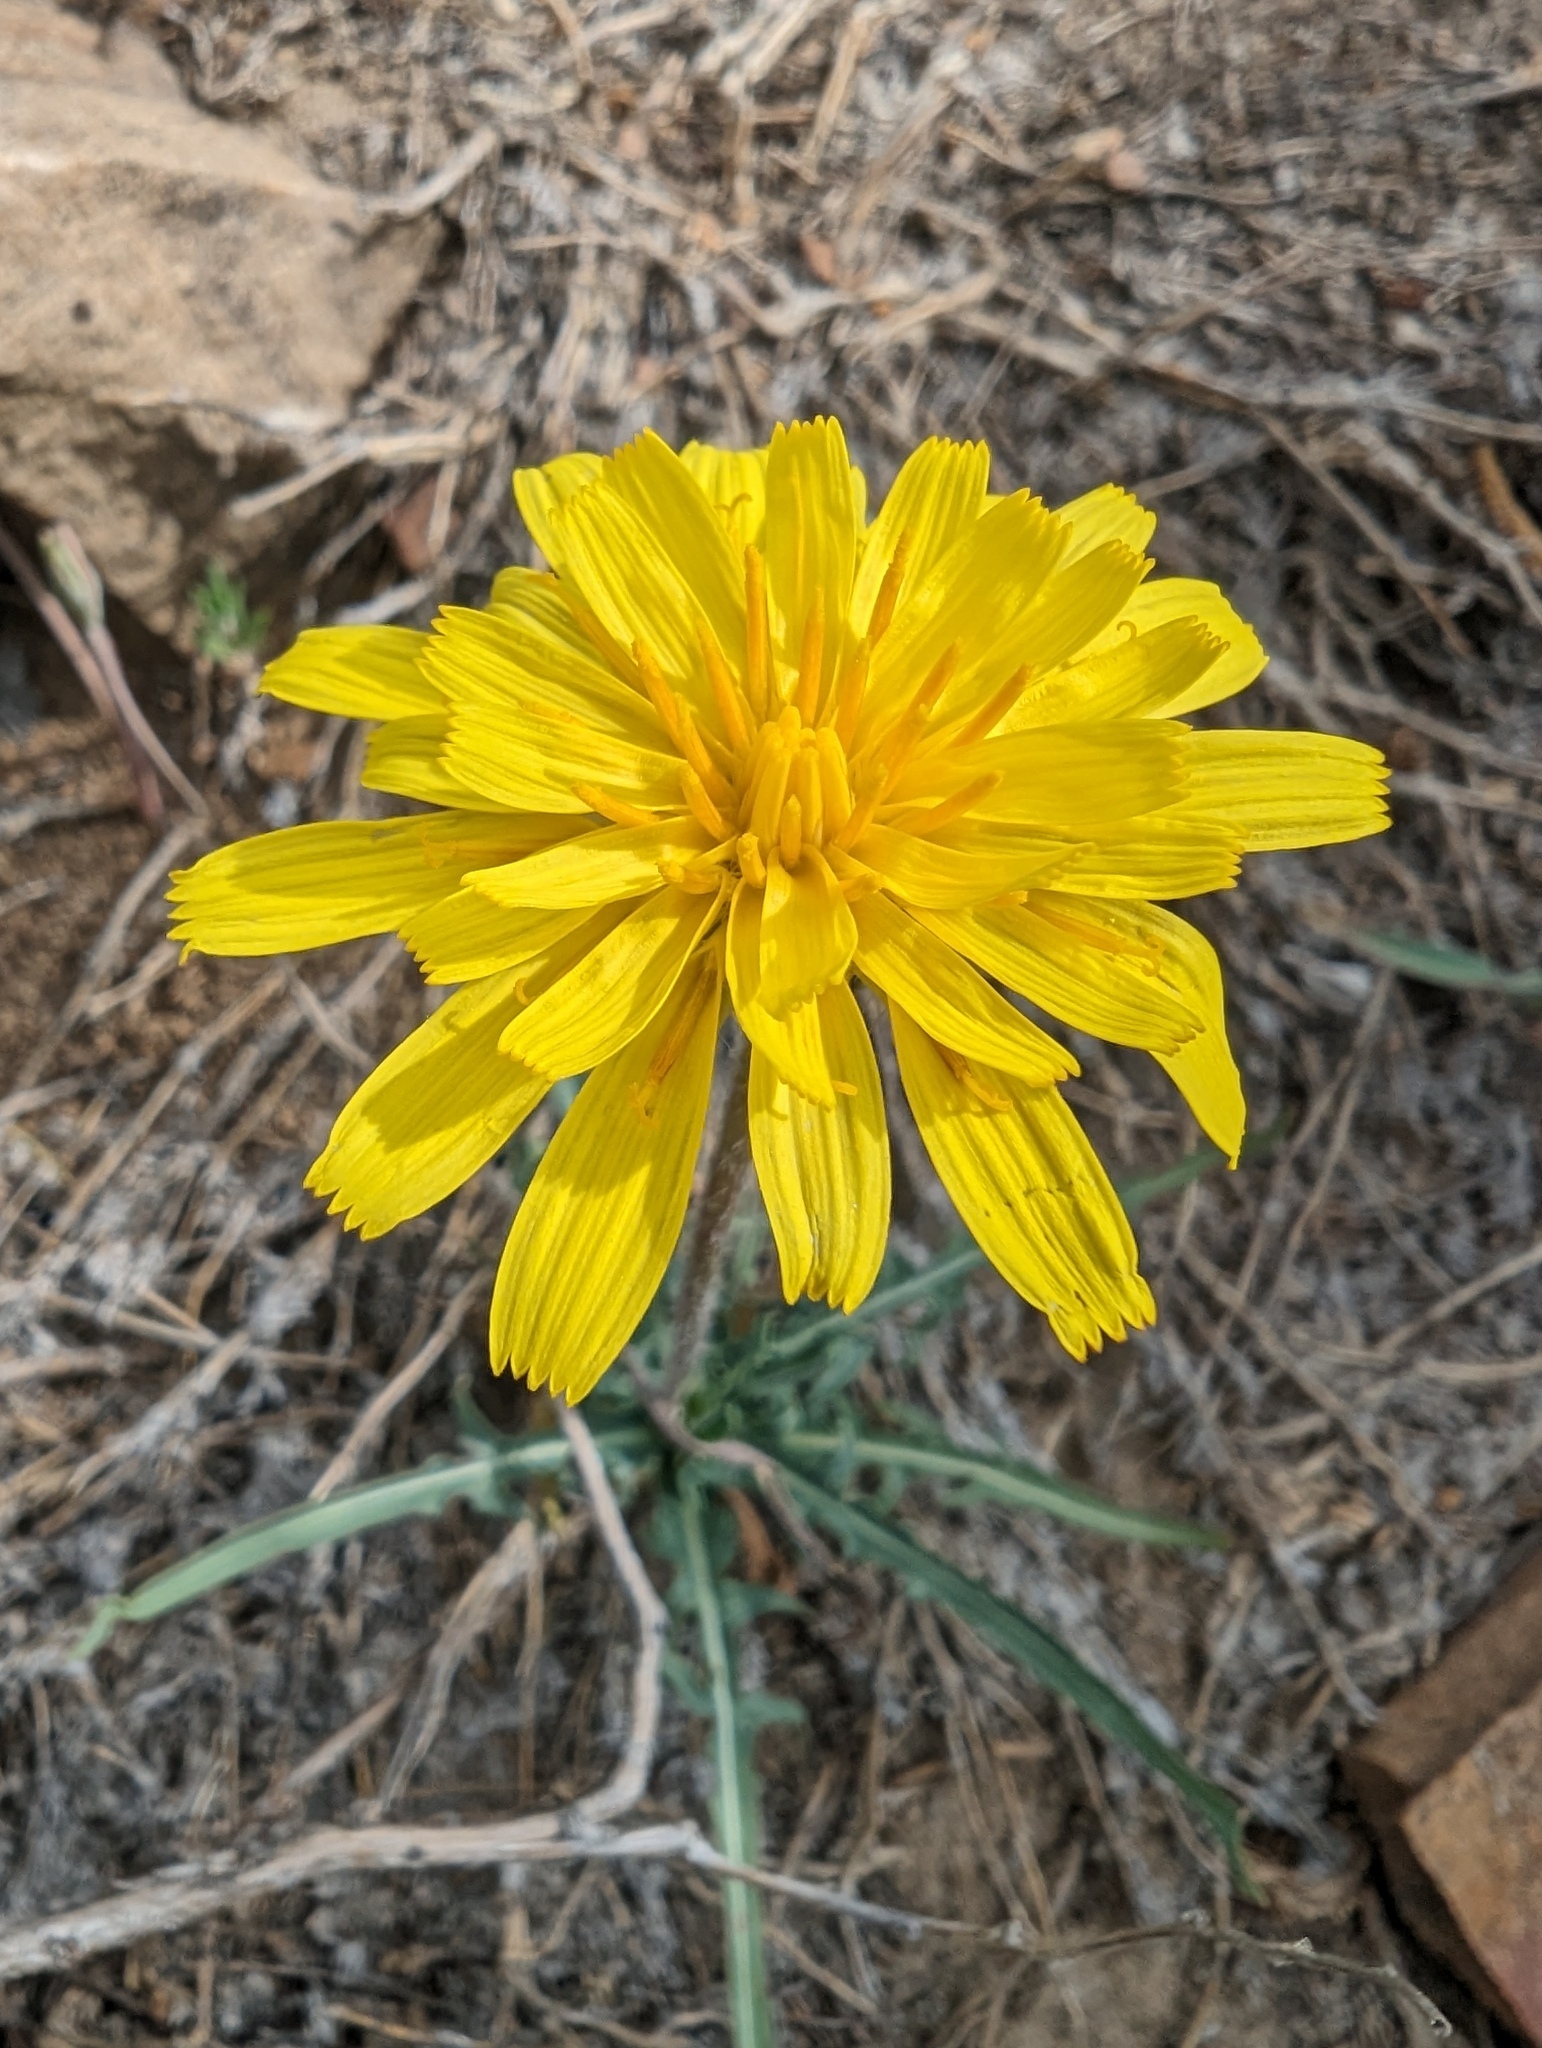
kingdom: Plantae
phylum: Tracheophyta
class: Magnoliopsida
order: Asterales
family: Asteraceae
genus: Agoseris
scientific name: Agoseris parviflora
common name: Steppe agoseris
